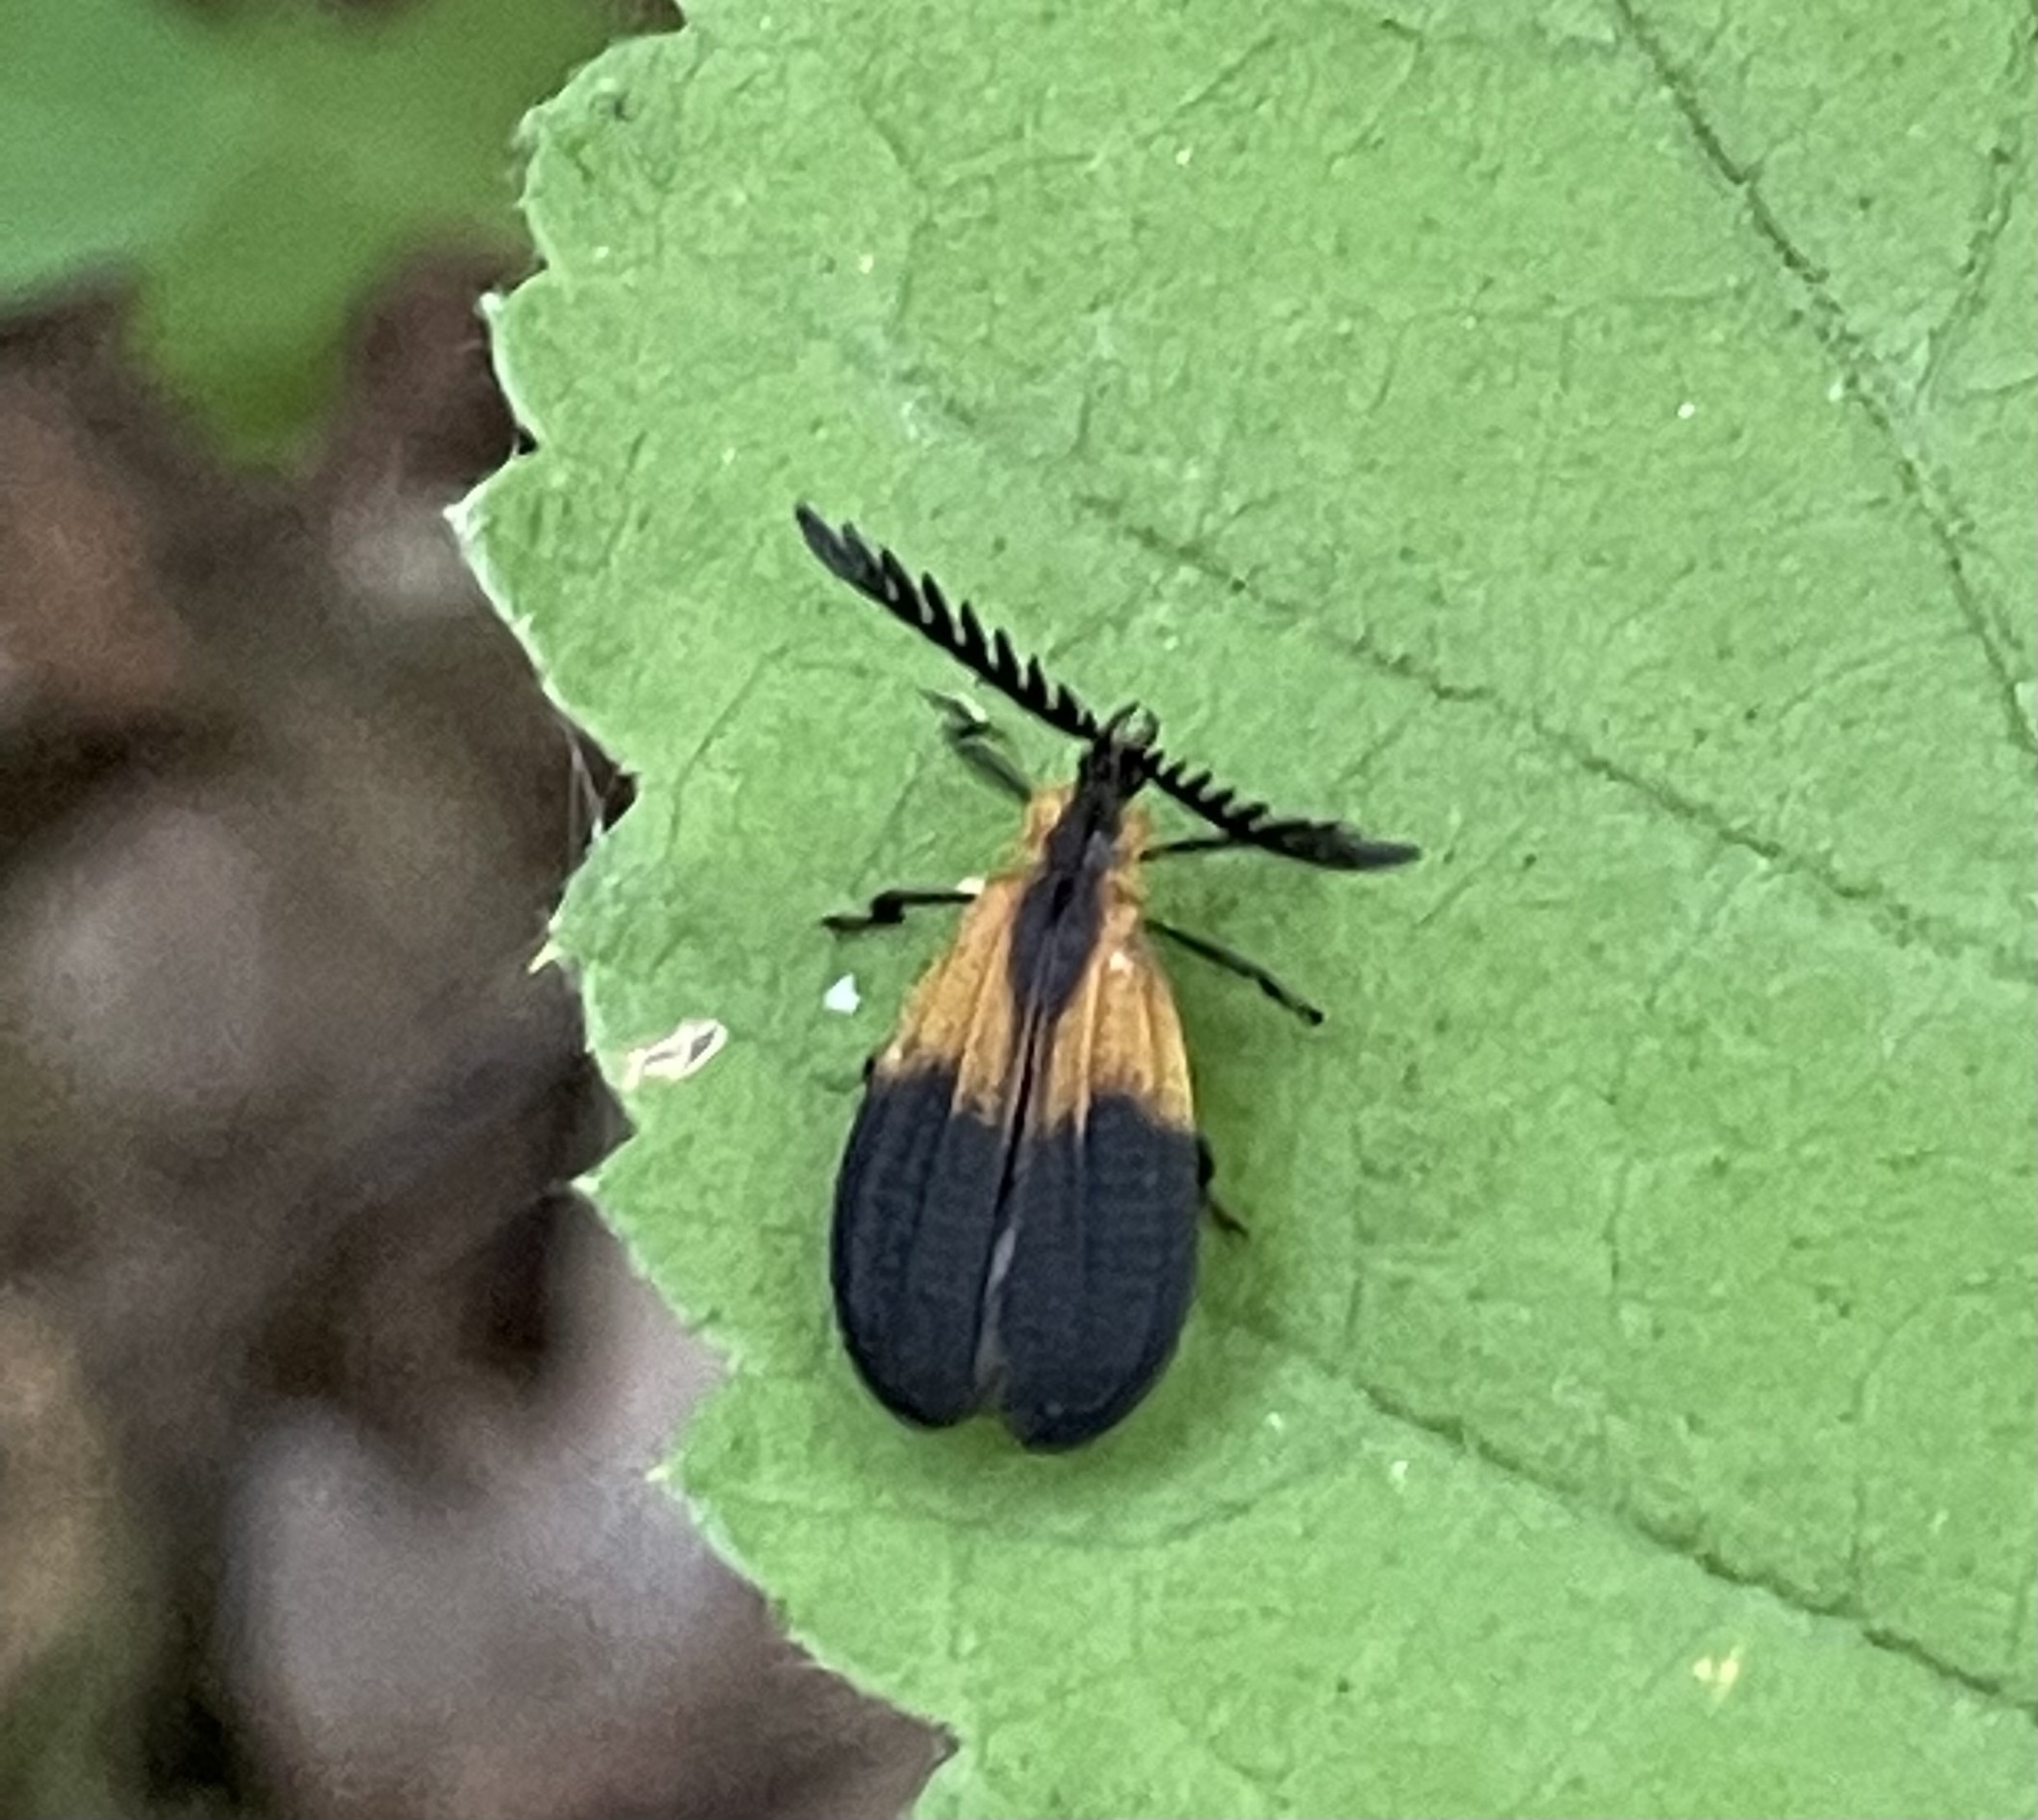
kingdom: Animalia
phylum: Arthropoda
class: Insecta
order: Coleoptera
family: Lycidae
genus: Caenia
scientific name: Caenia dimidiata
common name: Terminal net-winged beetle
